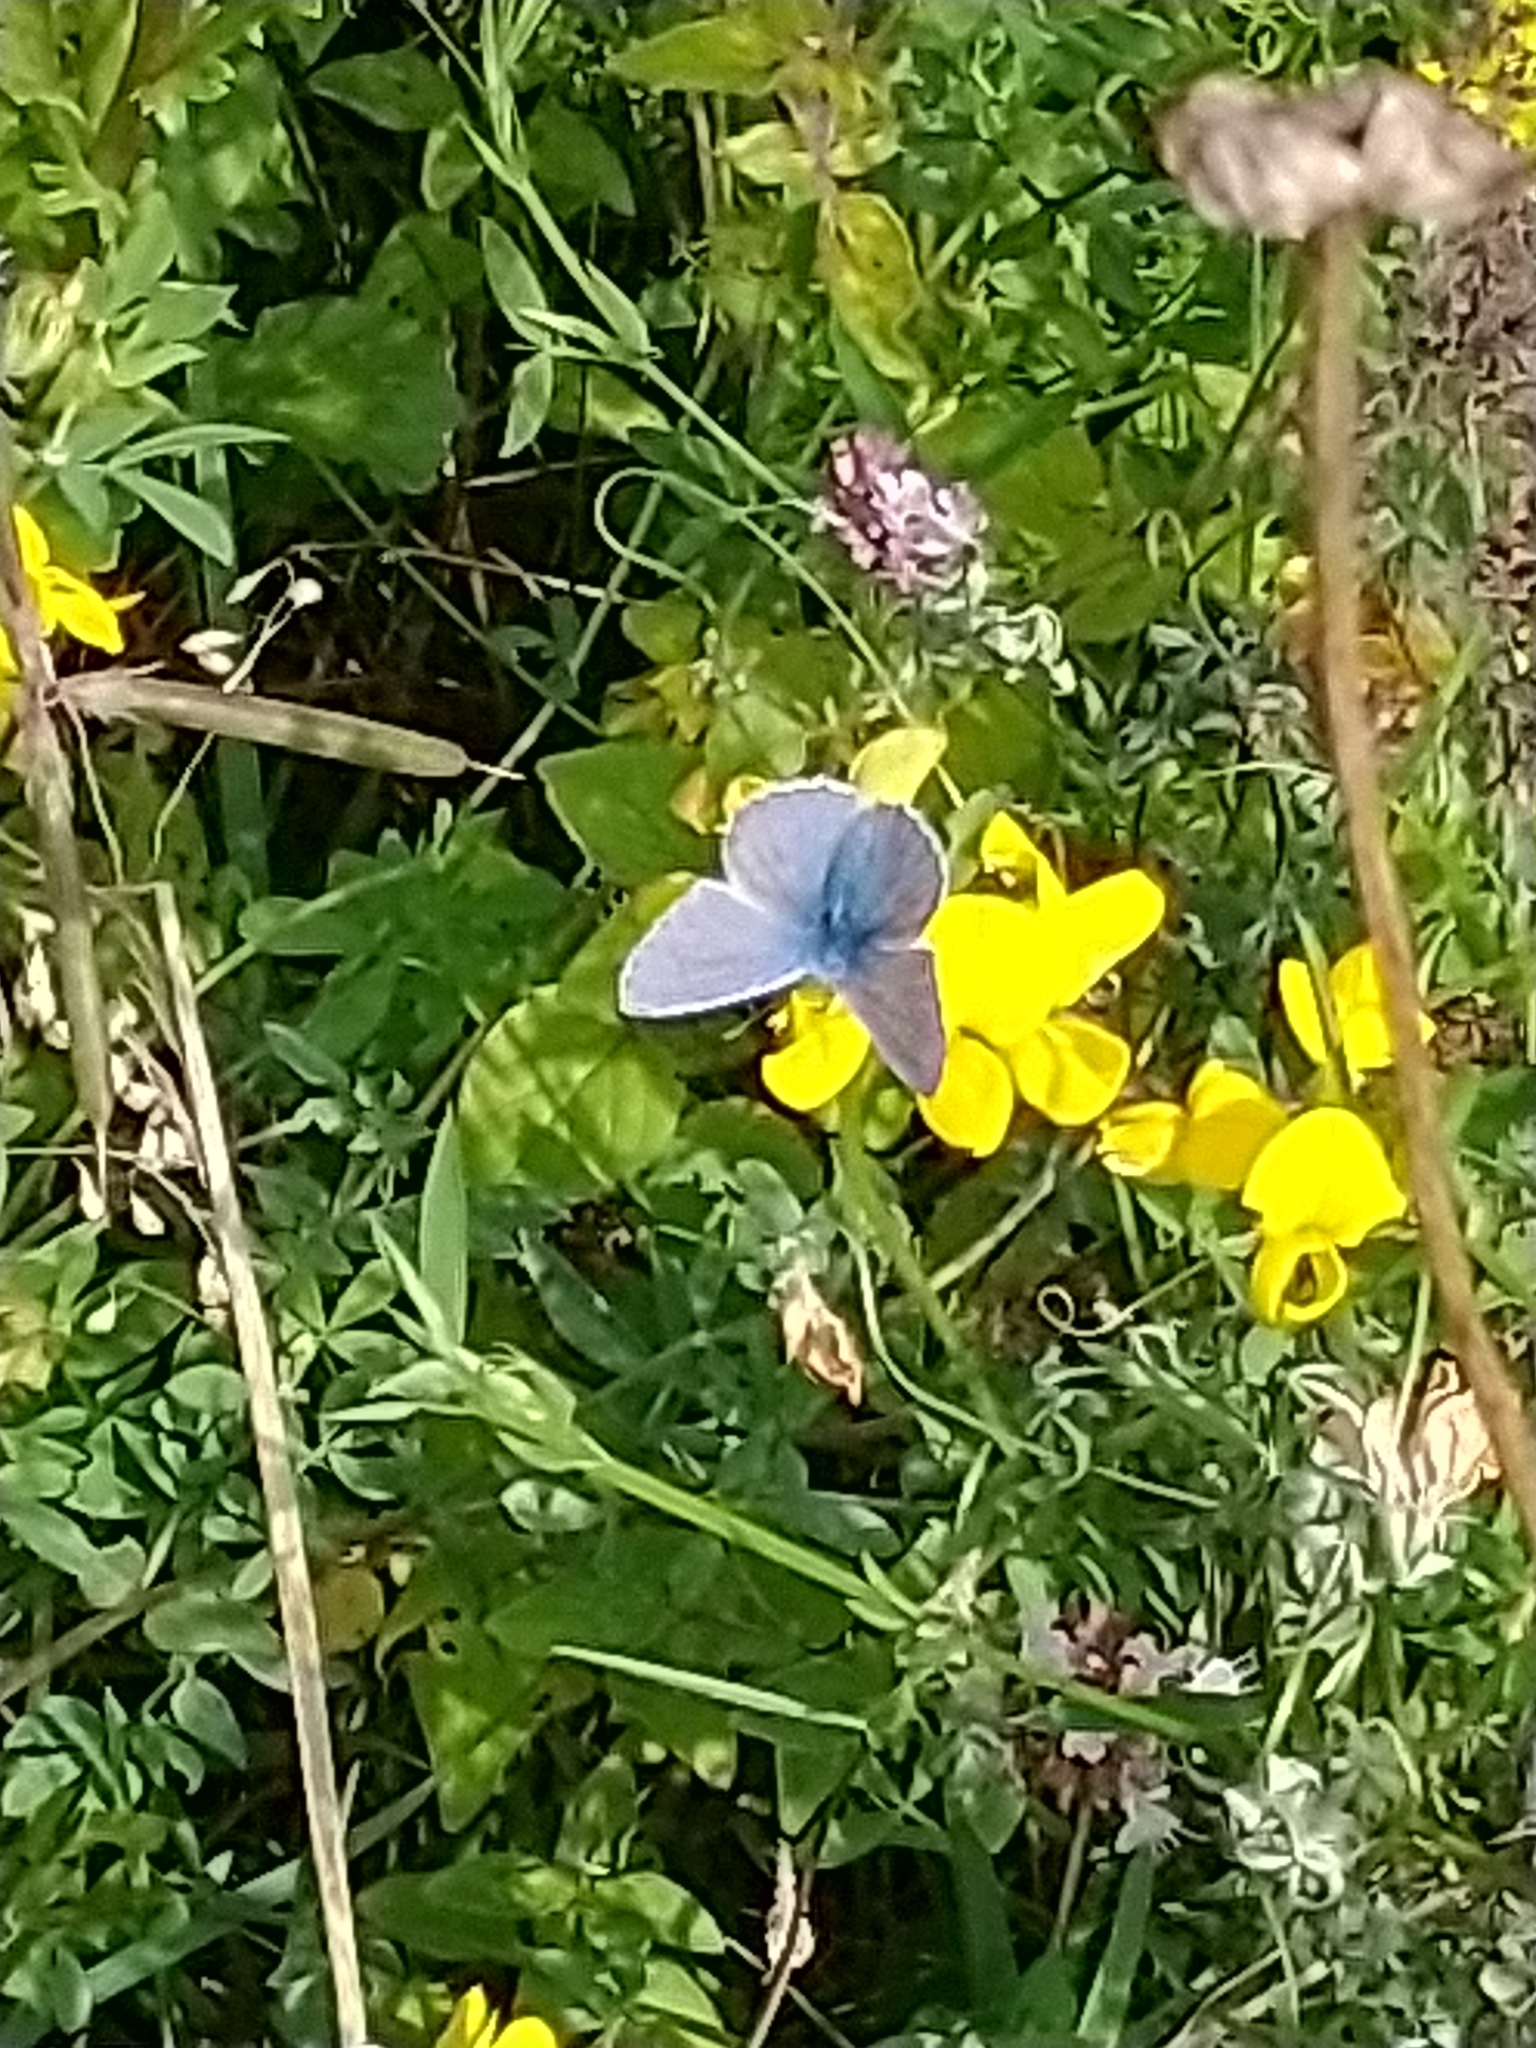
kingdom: Animalia
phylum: Arthropoda
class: Insecta
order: Lepidoptera
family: Lycaenidae
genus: Polyommatus
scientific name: Polyommatus icarus
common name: Common blue
